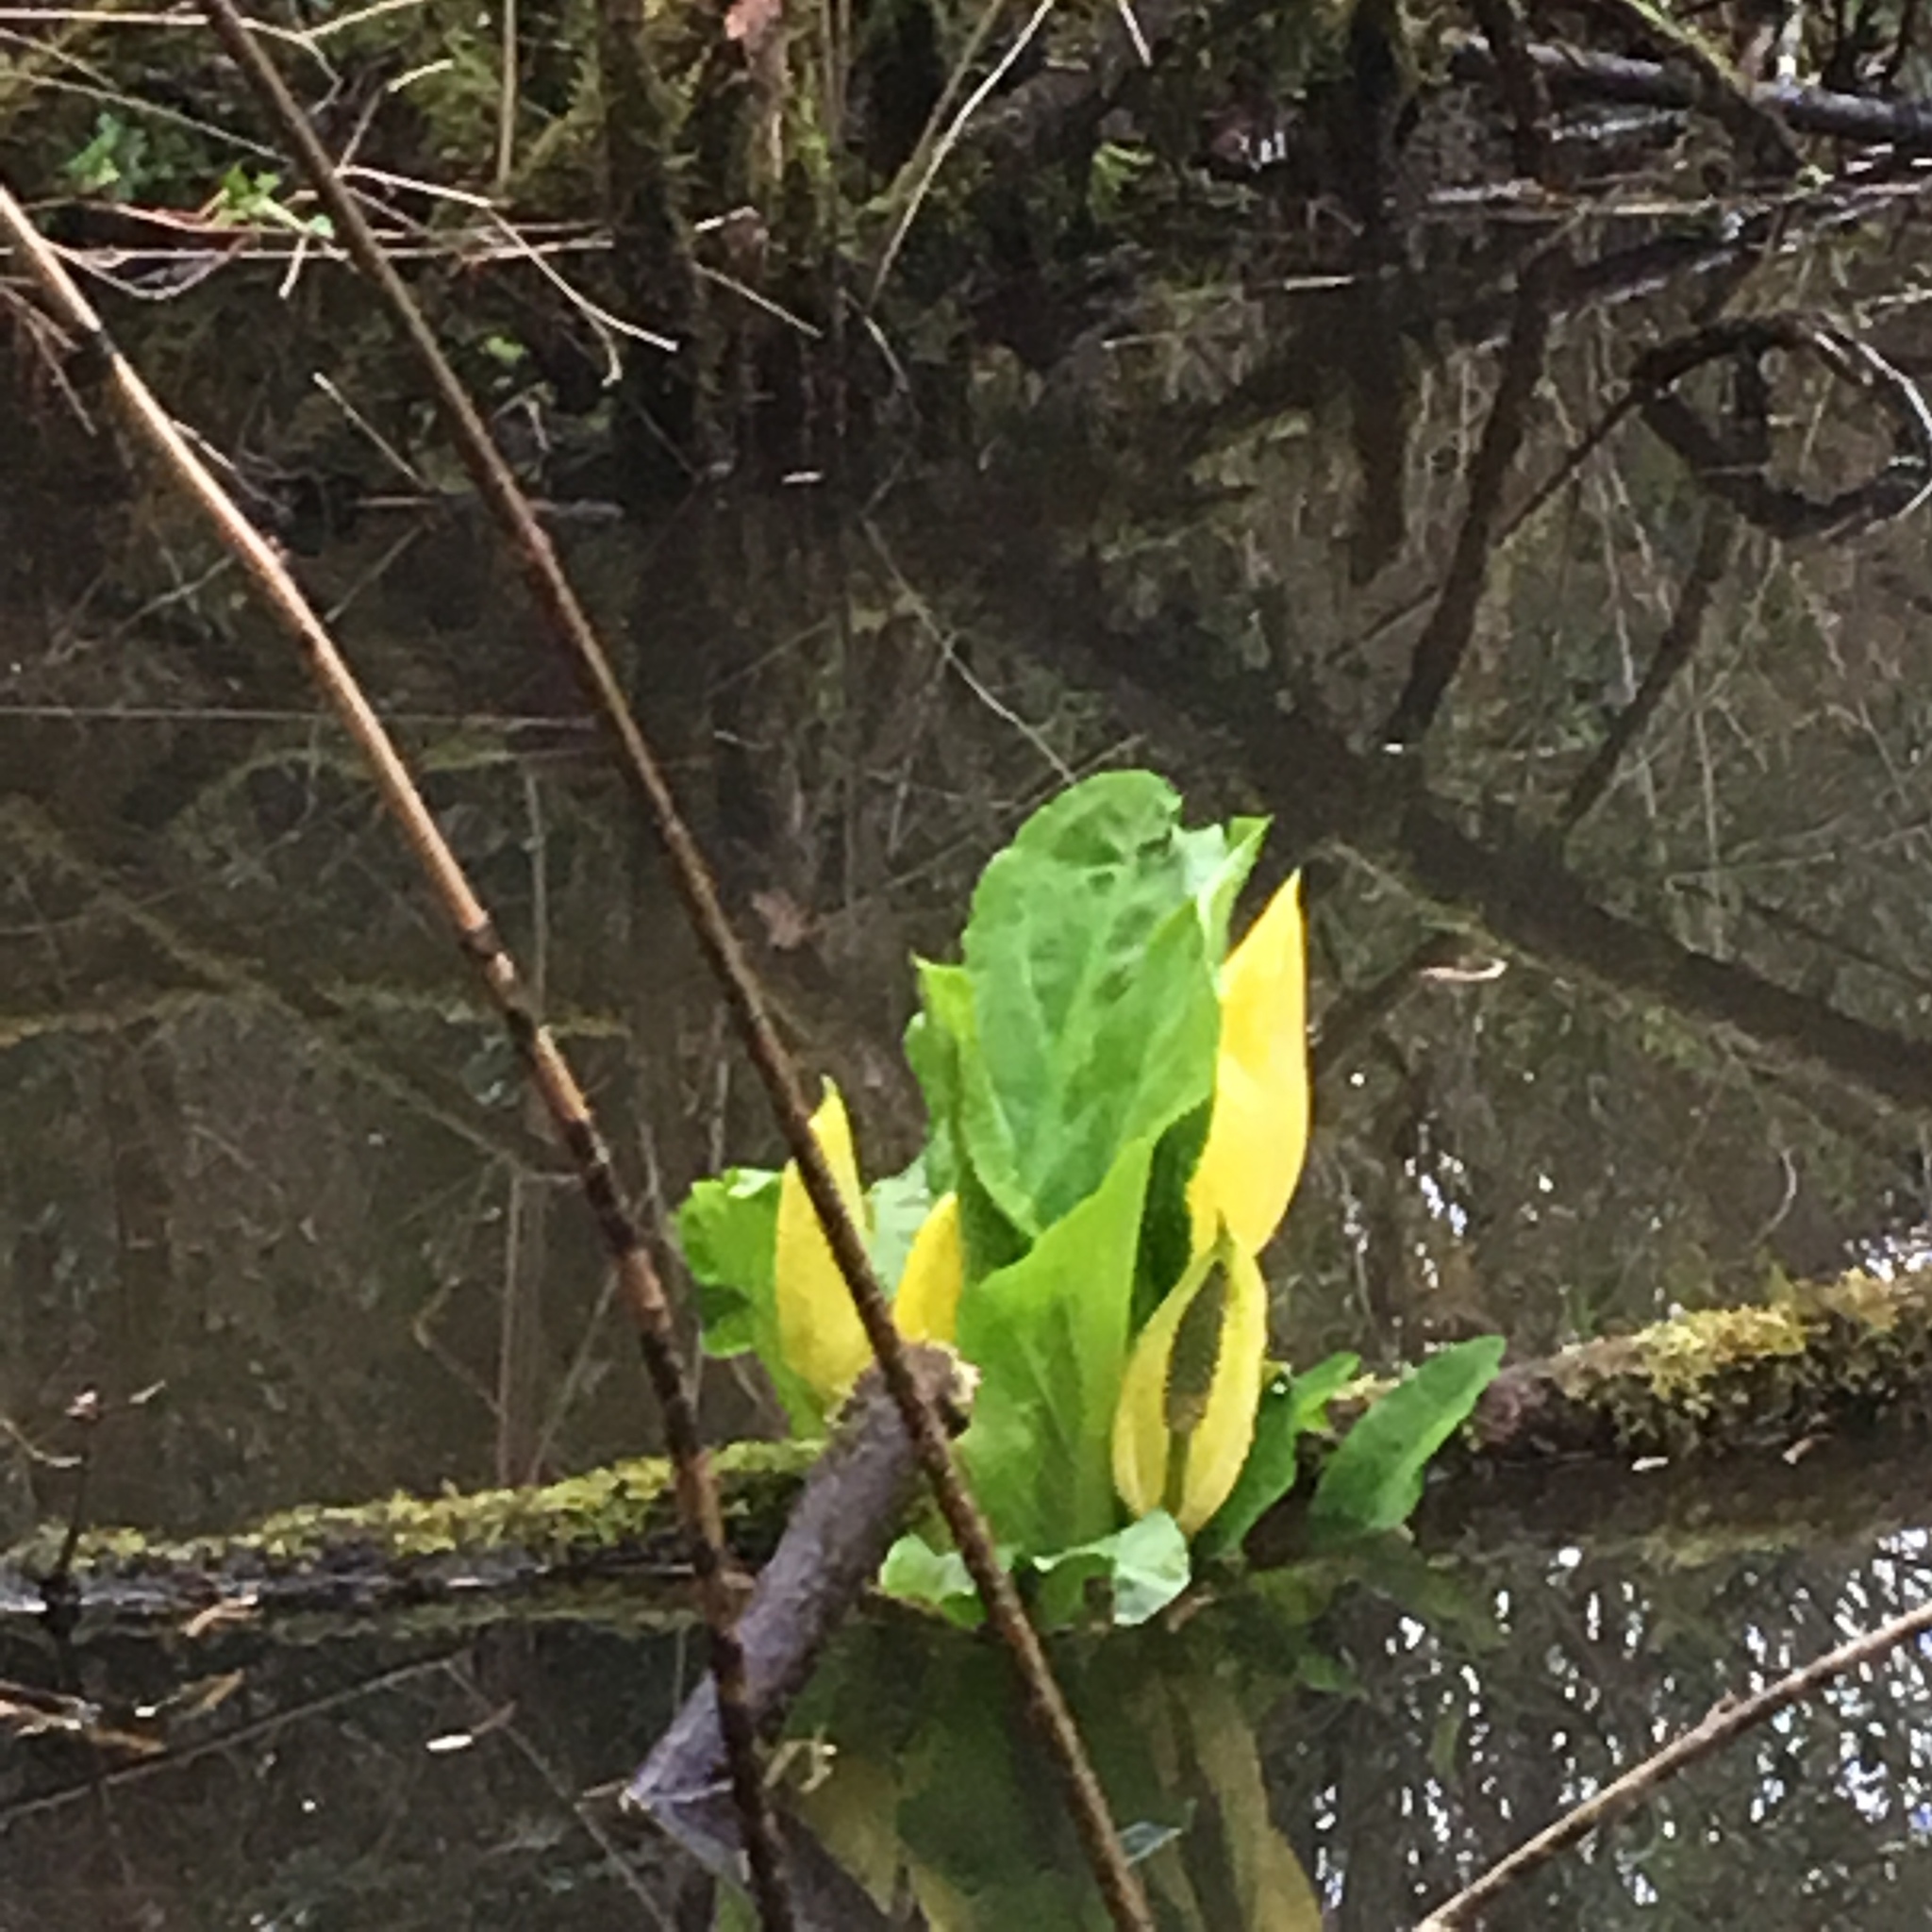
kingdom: Plantae
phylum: Tracheophyta
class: Liliopsida
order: Alismatales
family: Araceae
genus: Lysichiton
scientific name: Lysichiton americanus
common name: American skunk cabbage
